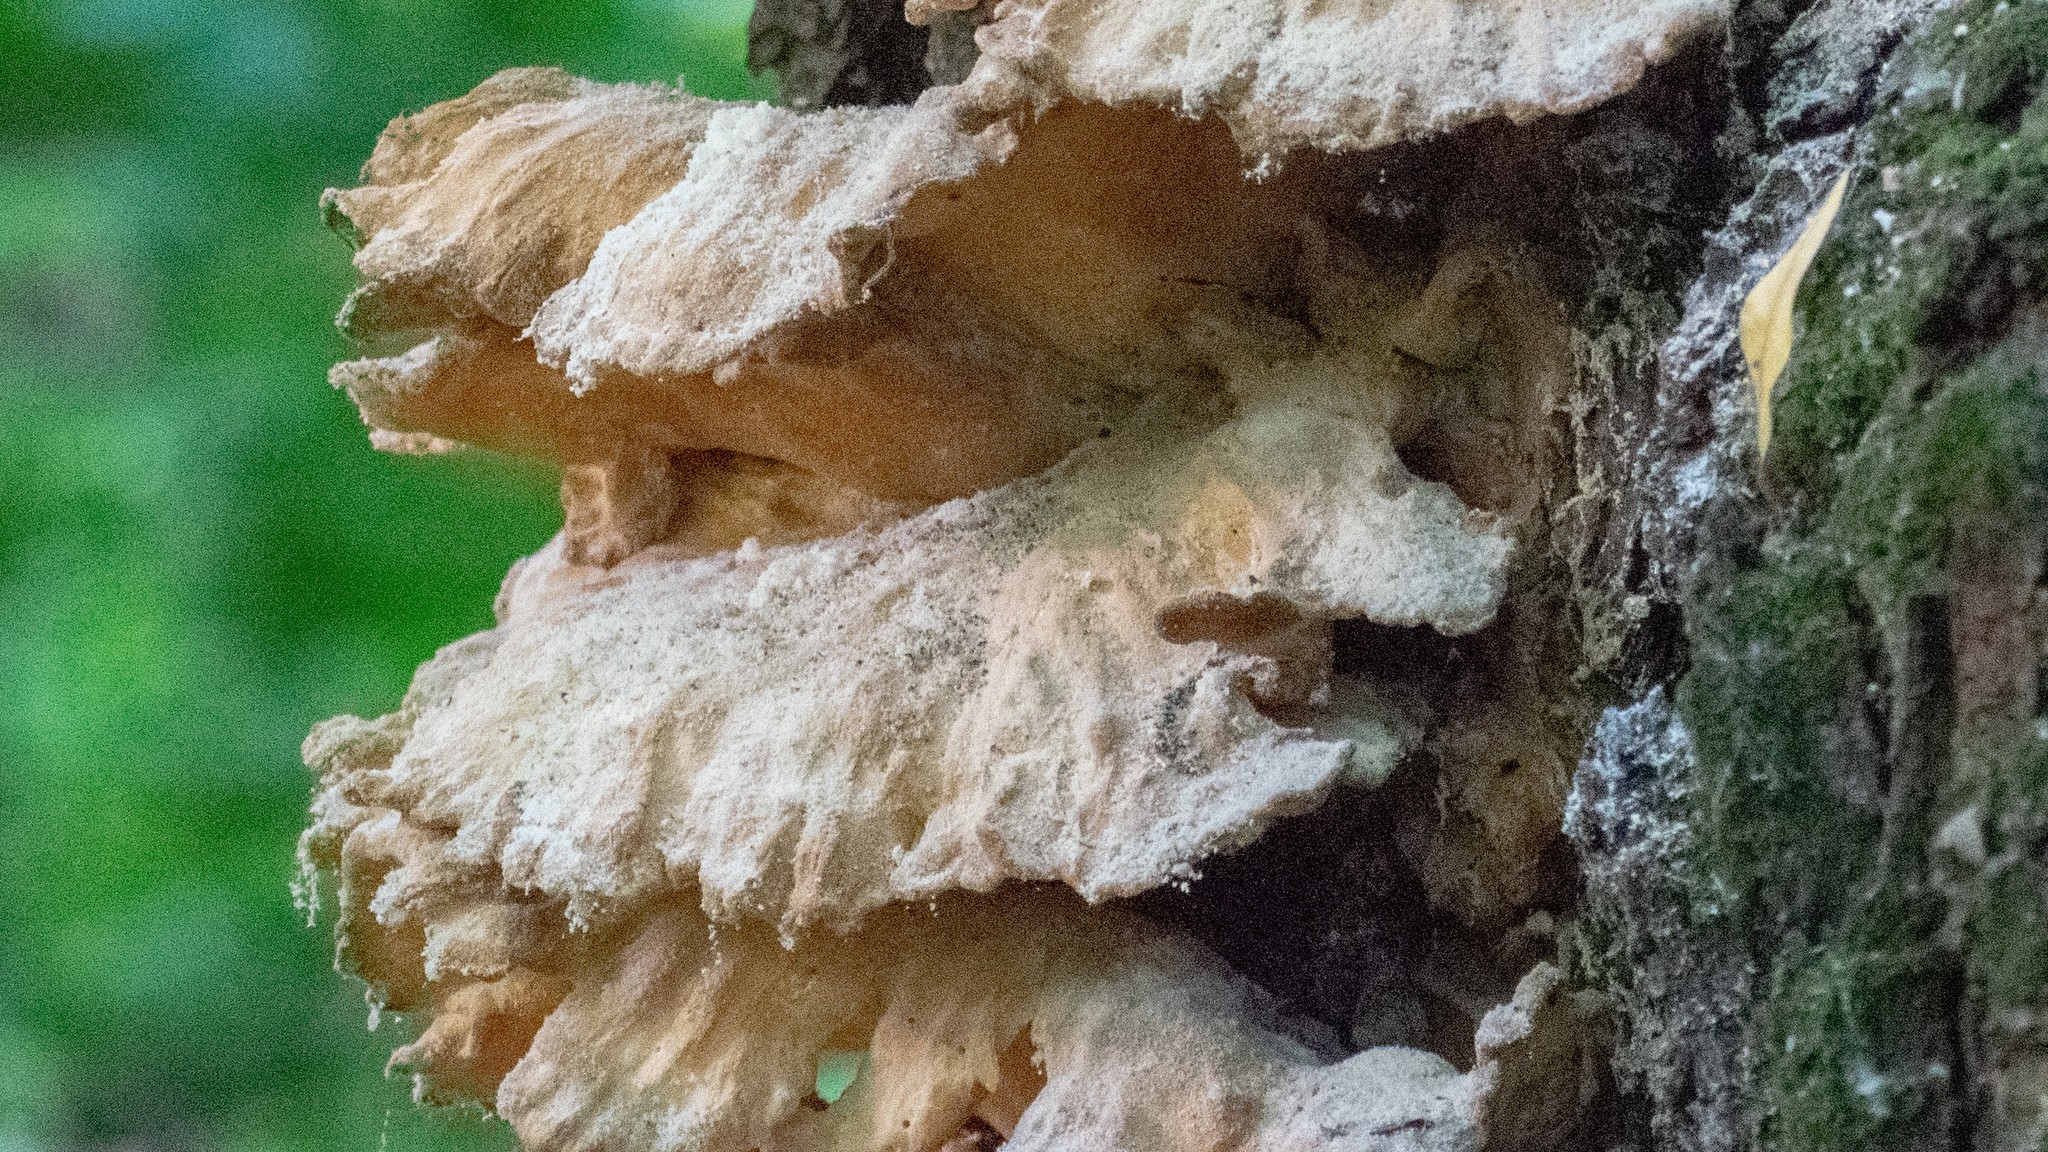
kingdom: Fungi
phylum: Basidiomycota
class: Agaricomycetes
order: Polyporales
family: Laetiporaceae
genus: Laetiporus
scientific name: Laetiporus sulphureus
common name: Chicken of the woods
